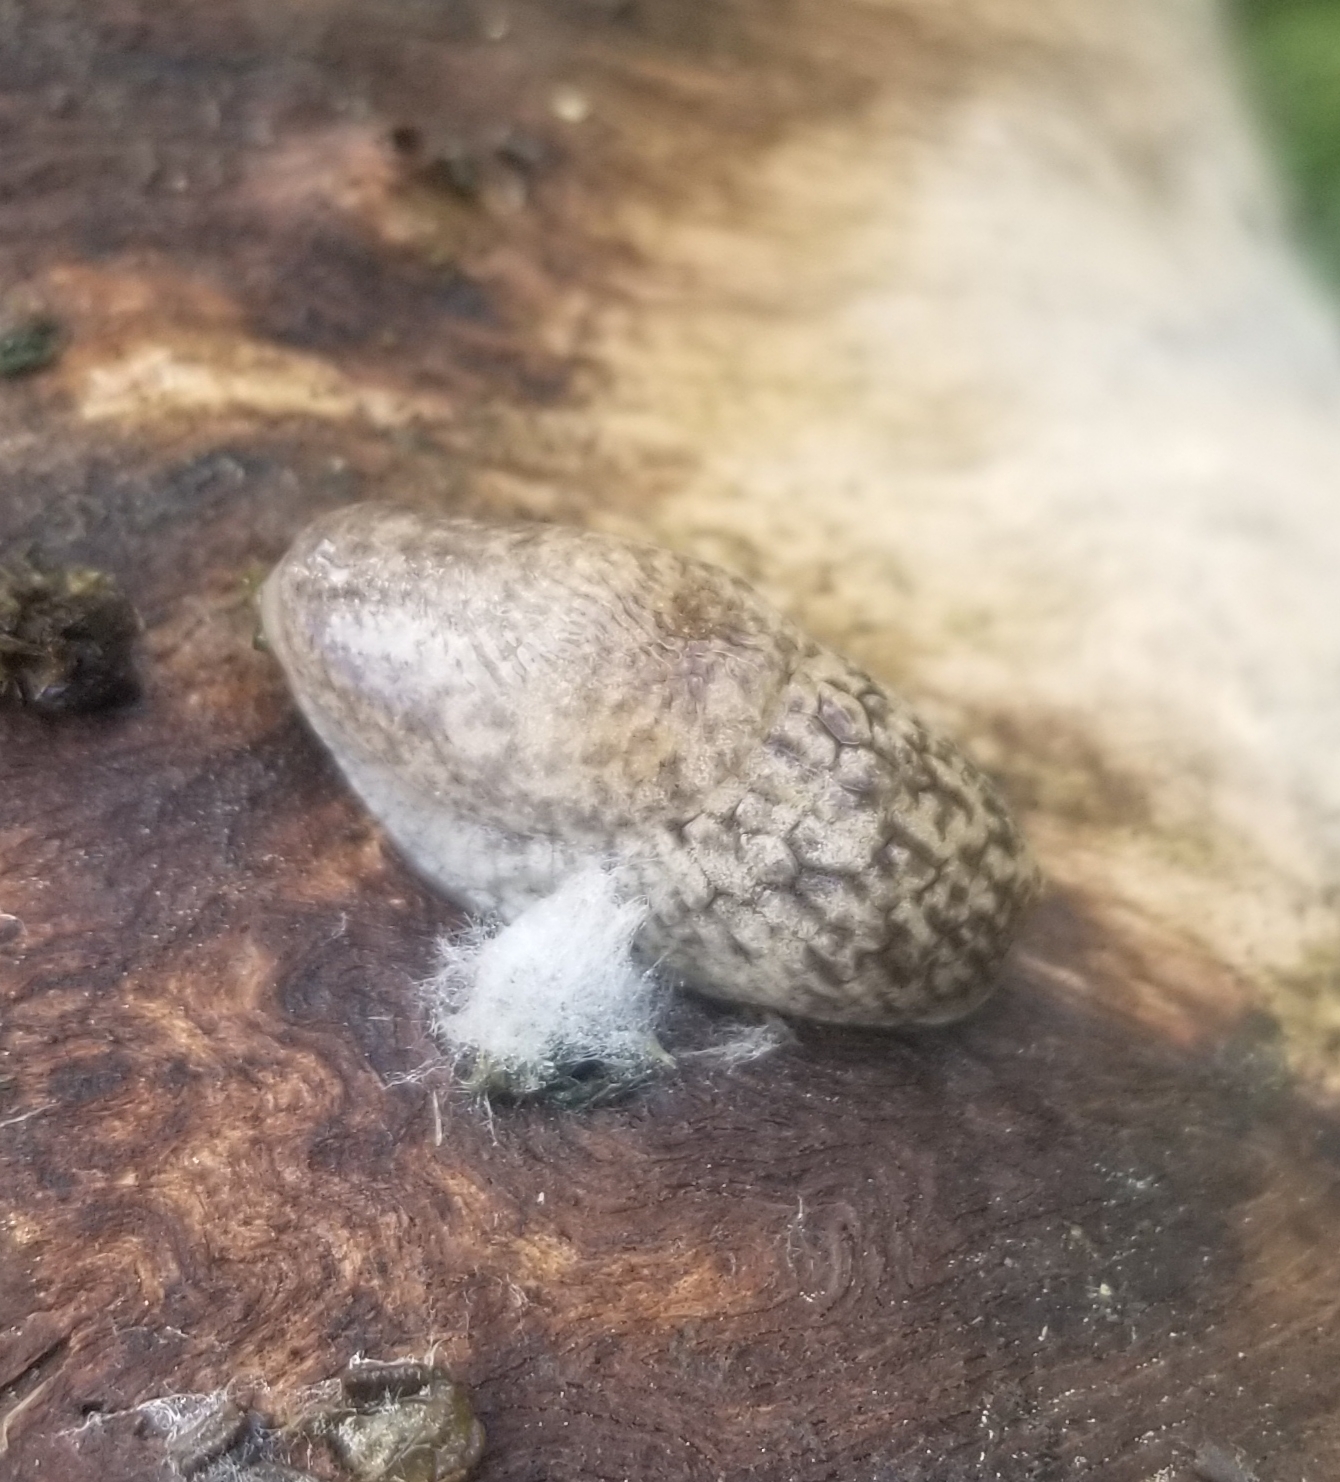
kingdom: Animalia
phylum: Mollusca
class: Gastropoda
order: Stylommatophora
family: Agriolimacidae
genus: Deroceras
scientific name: Deroceras reticulatum
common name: Gray field slug
